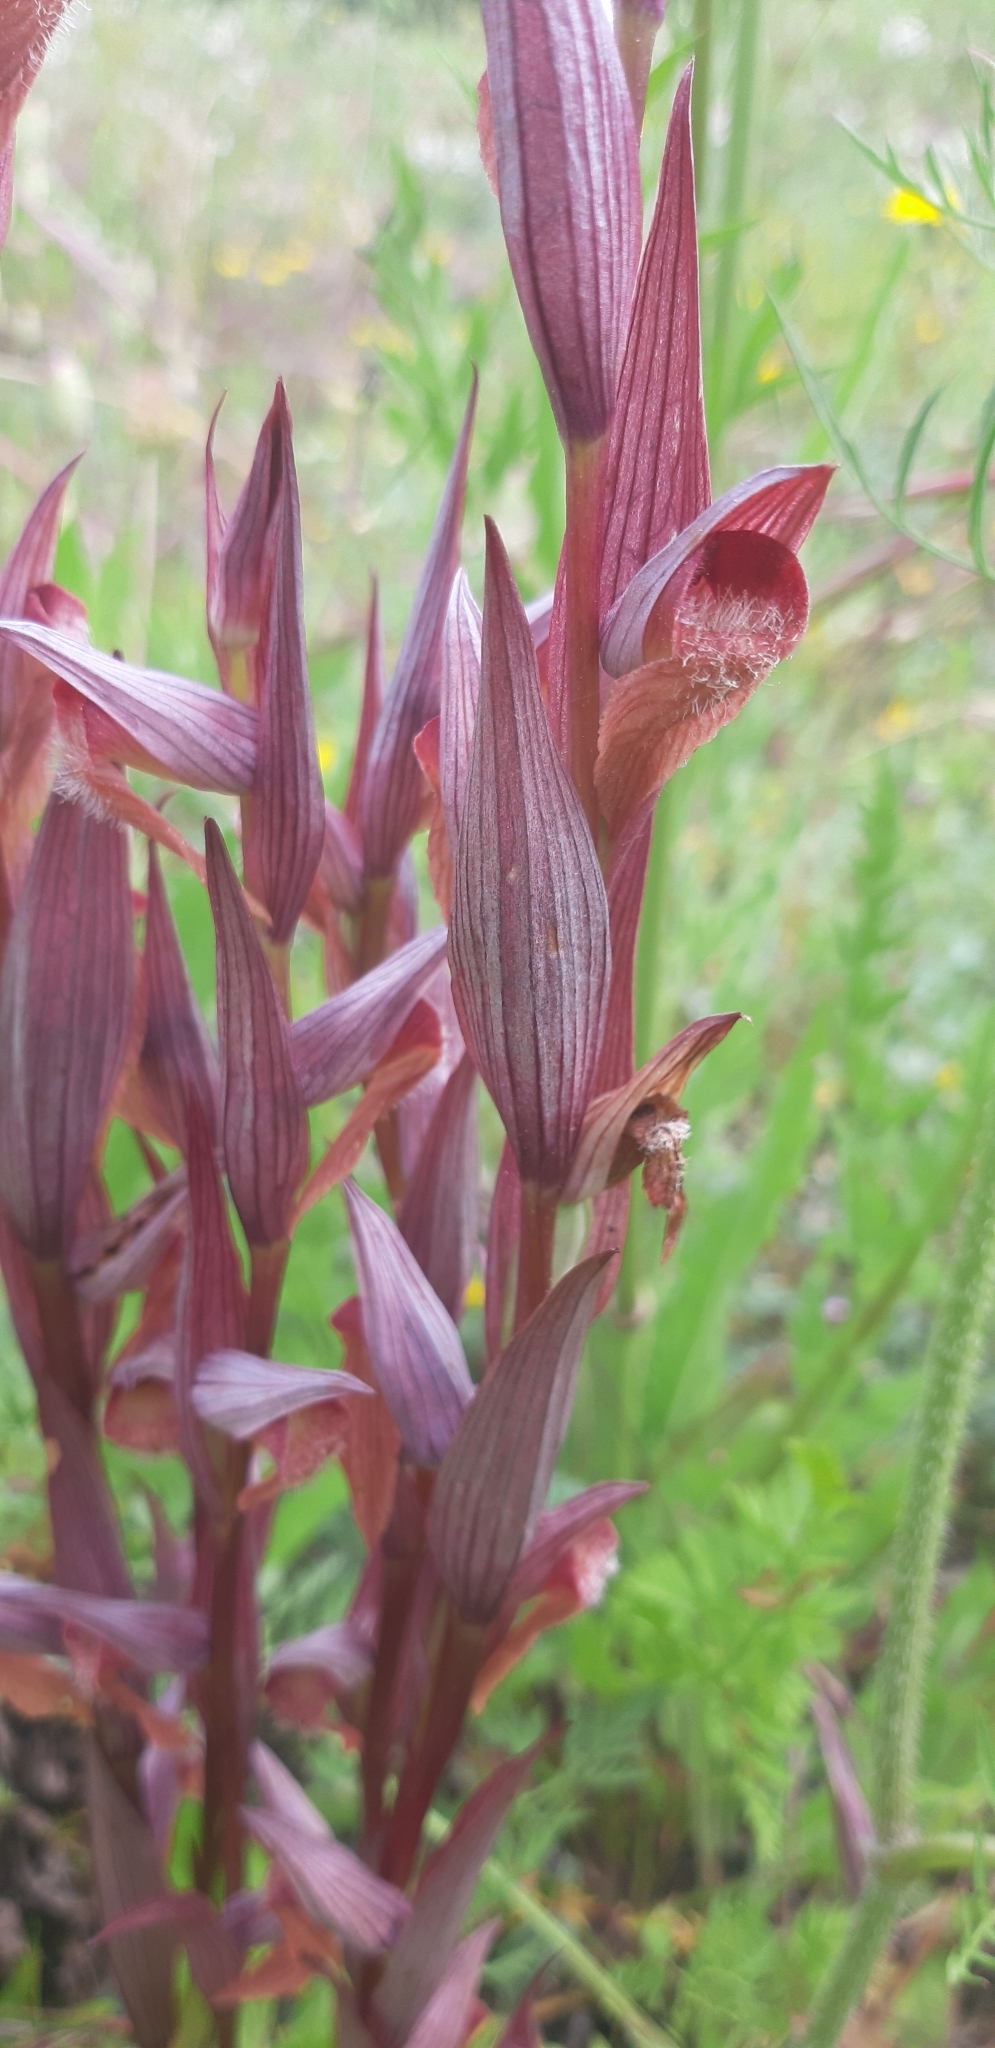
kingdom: Plantae
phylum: Tracheophyta
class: Liliopsida
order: Asparagales
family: Orchidaceae
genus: Serapias
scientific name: Serapias vomeracea
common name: Long-lipped tongue-orchid
